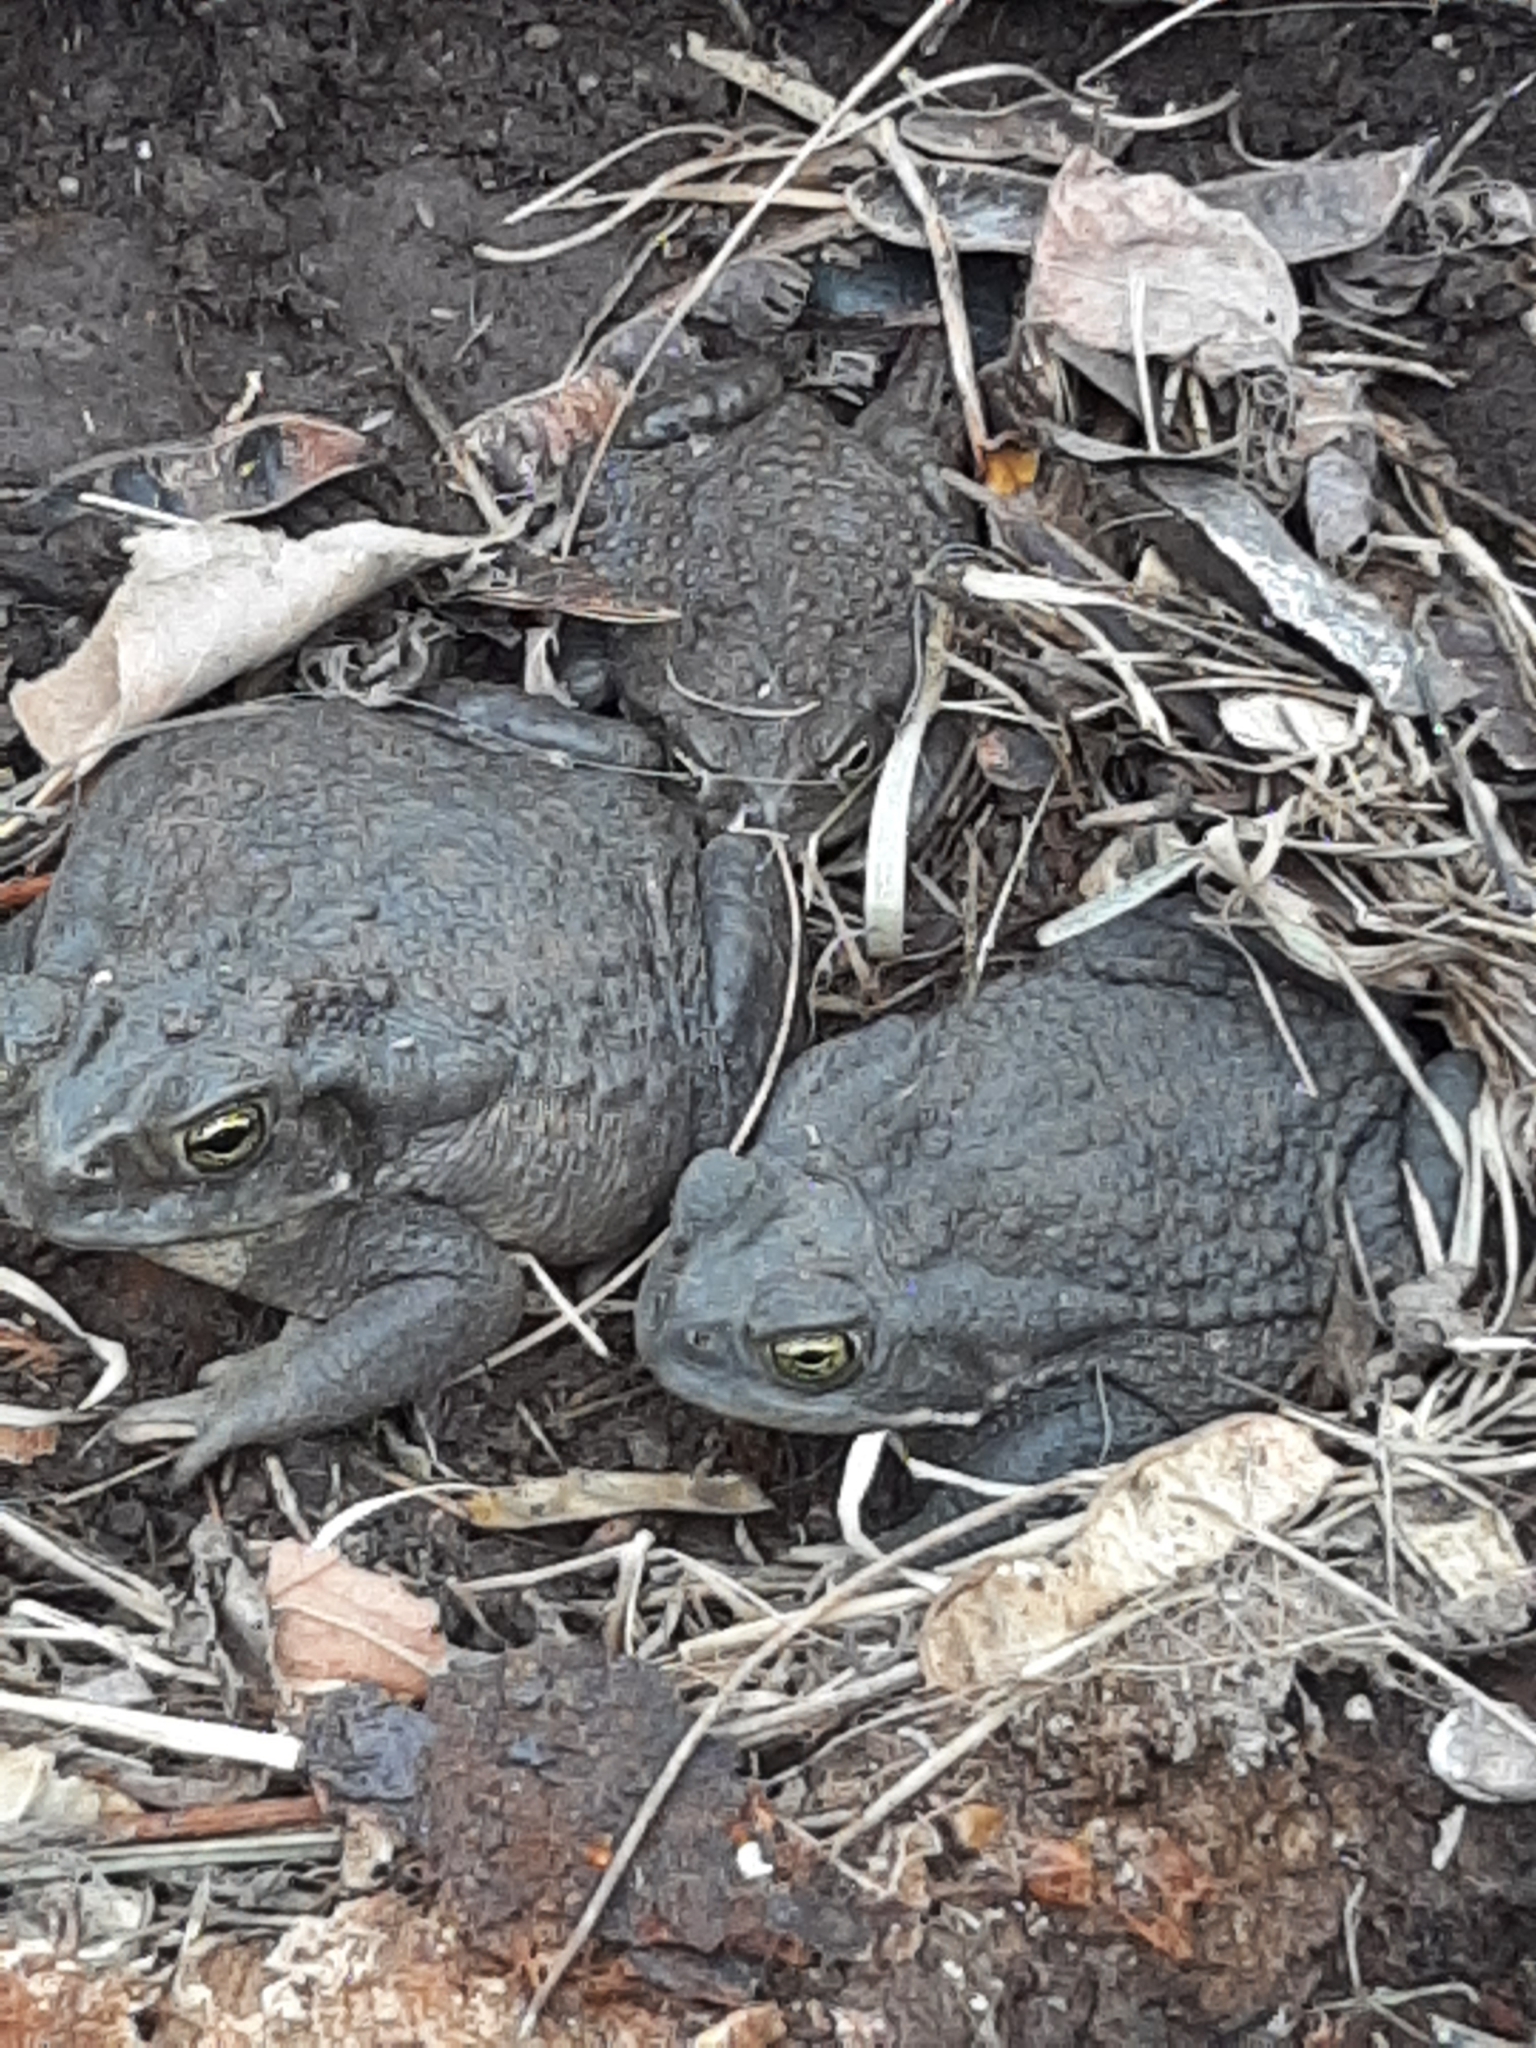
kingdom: Animalia
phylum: Chordata
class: Amphibia
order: Anura
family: Bufonidae
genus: Rhinella
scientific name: Rhinella arenarum
